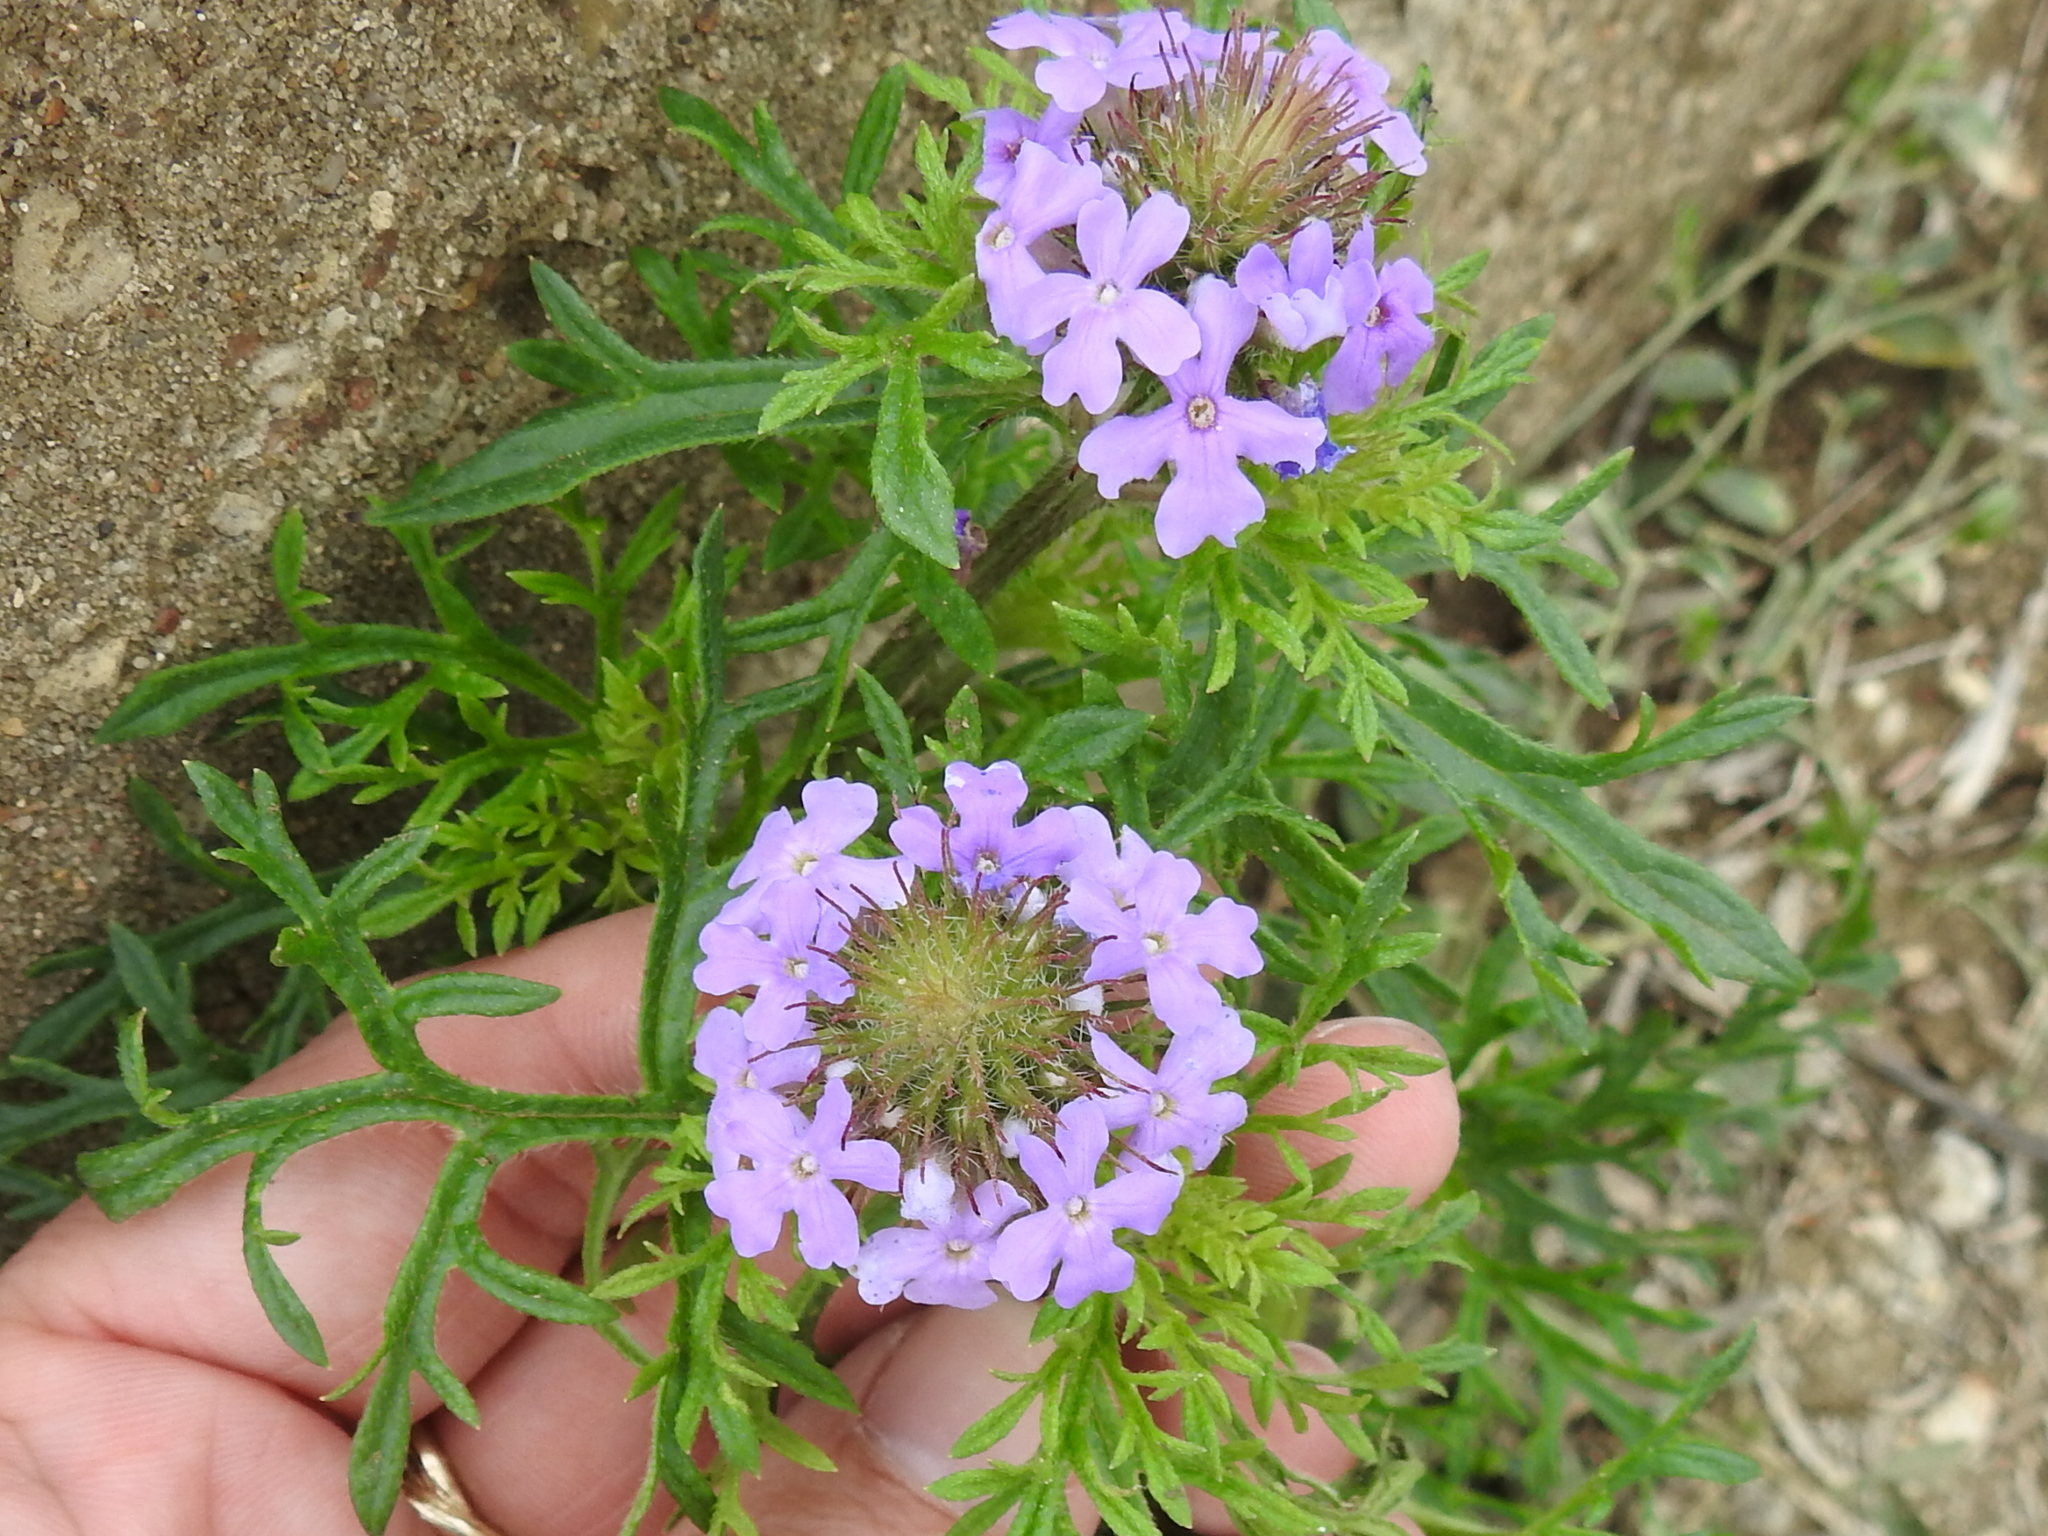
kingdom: Plantae
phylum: Tracheophyta
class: Magnoliopsida
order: Lamiales
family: Verbenaceae
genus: Verbena
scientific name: Verbena bipinnatifida
